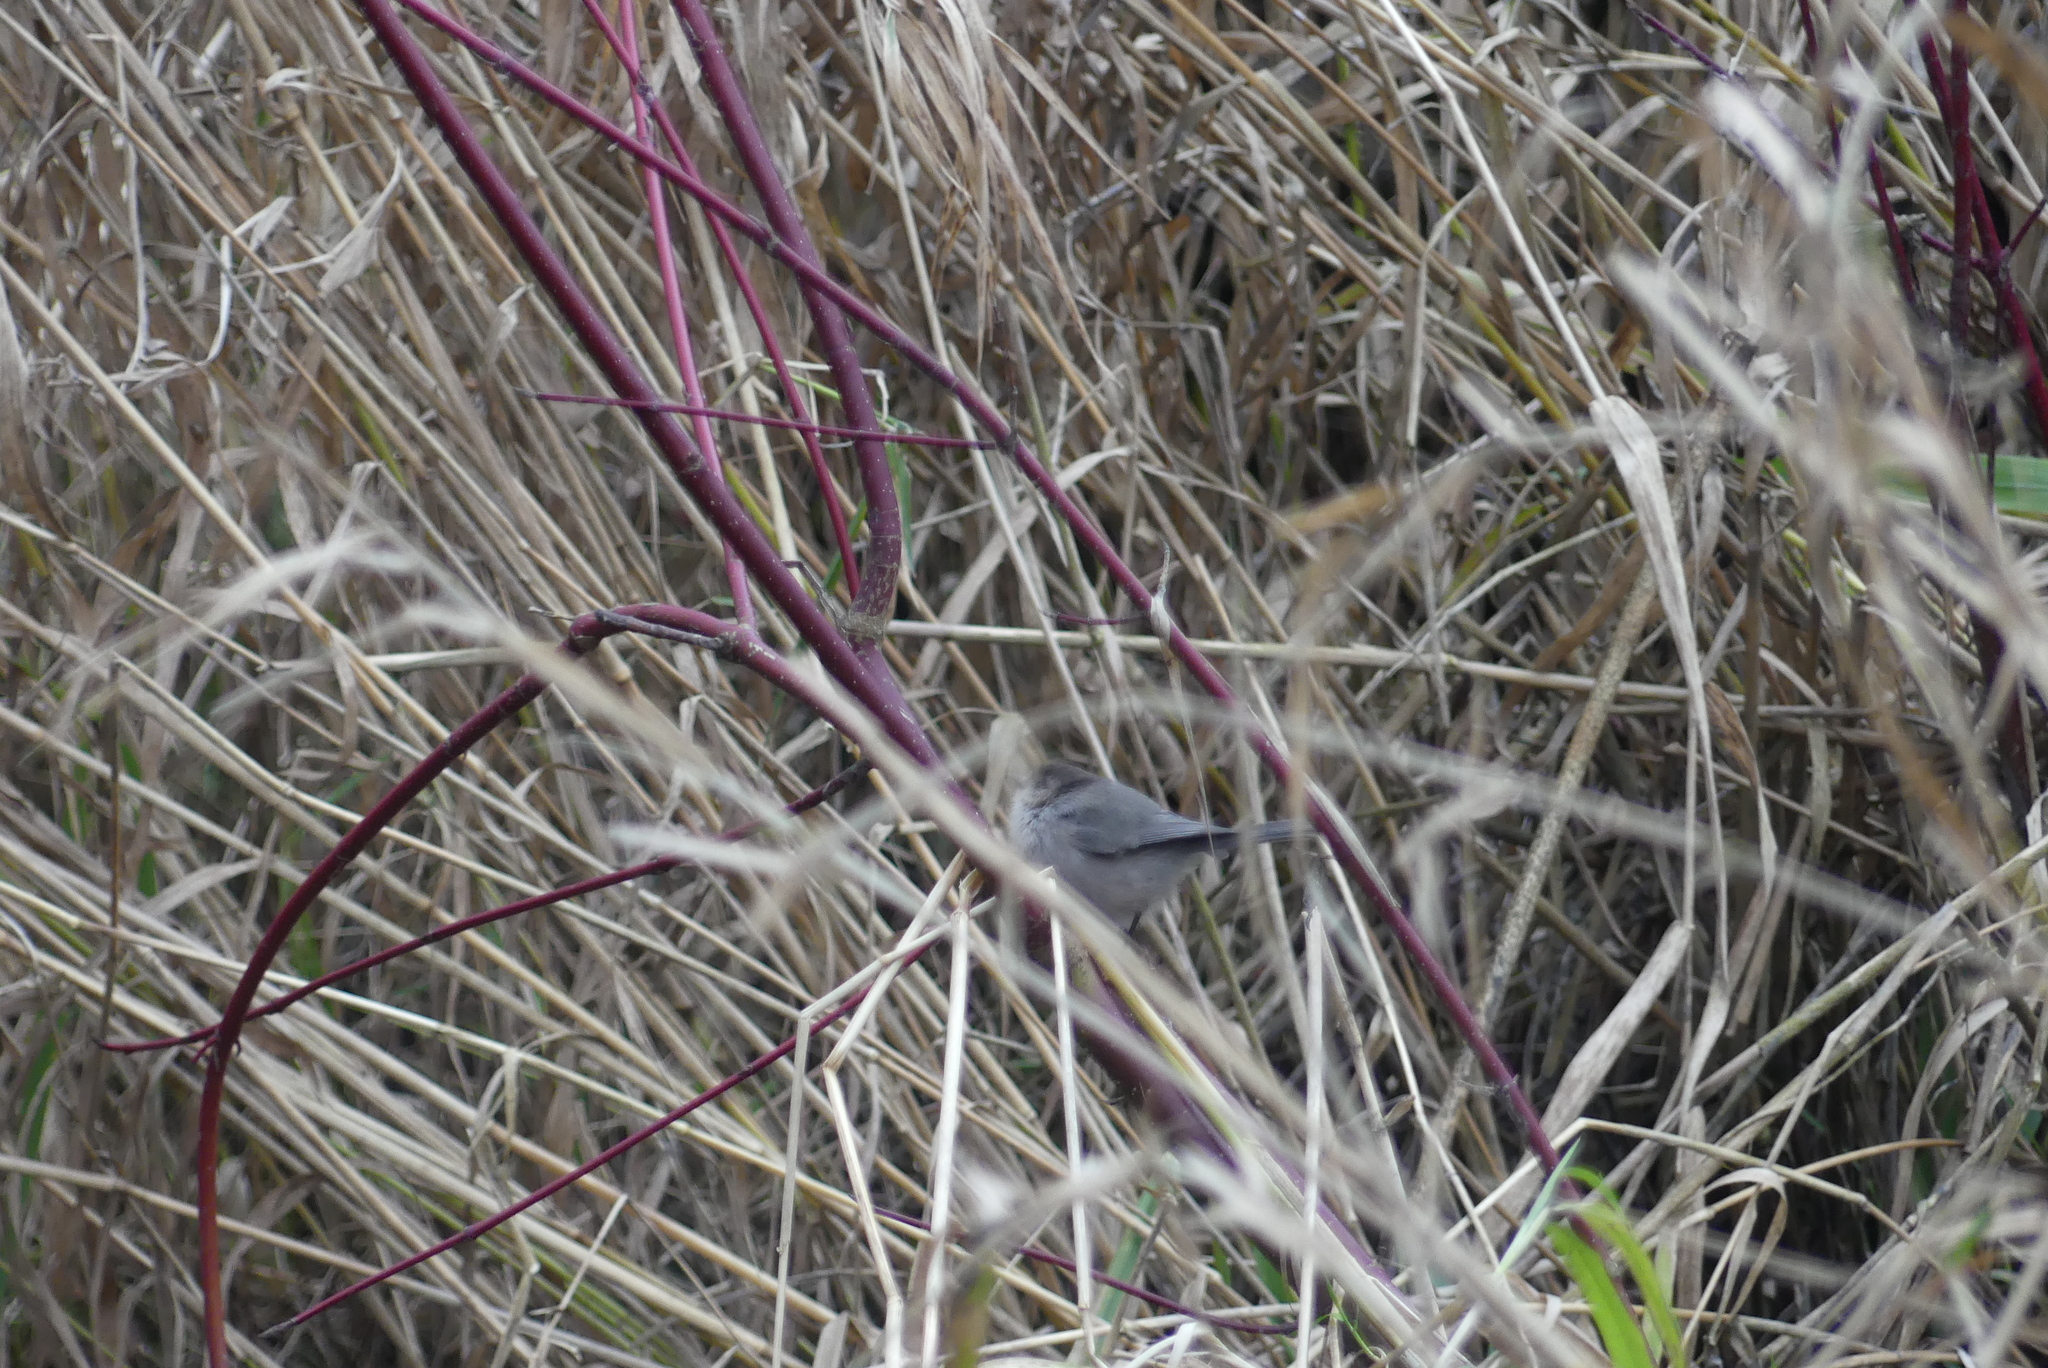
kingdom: Animalia
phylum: Chordata
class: Aves
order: Passeriformes
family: Aegithalidae
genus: Psaltriparus
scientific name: Psaltriparus minimus
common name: American bushtit
